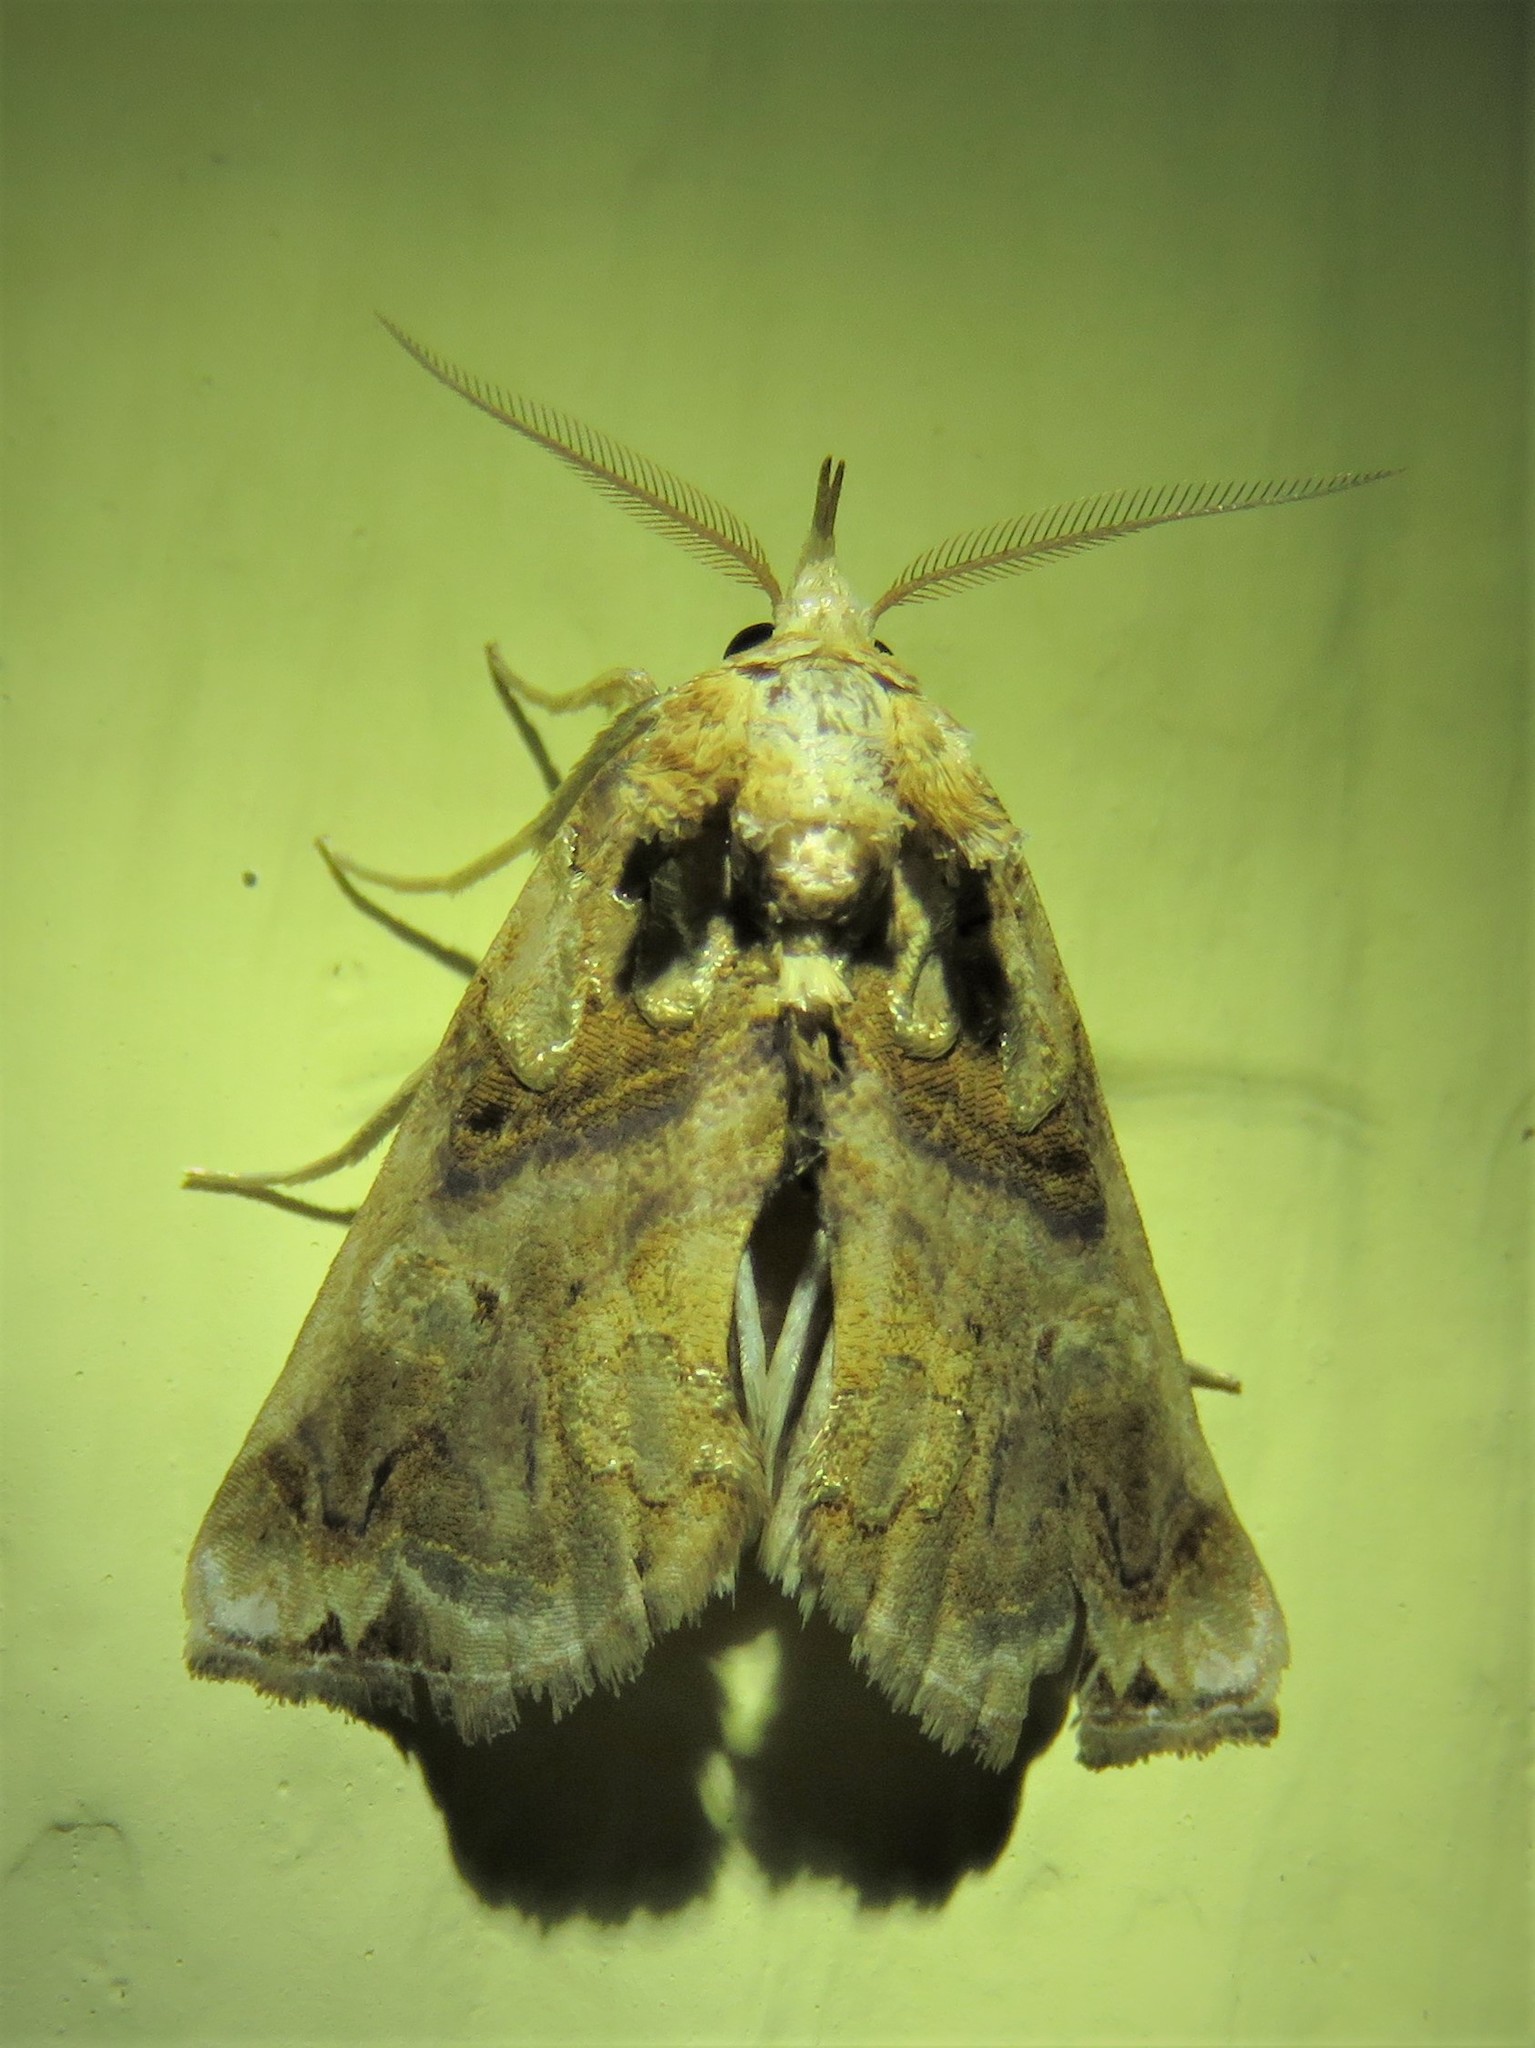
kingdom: Animalia
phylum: Arthropoda
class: Insecta
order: Lepidoptera
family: Erebidae
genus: Plusiodonta
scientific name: Plusiodonta compressipalpis
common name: Moonseed moth
